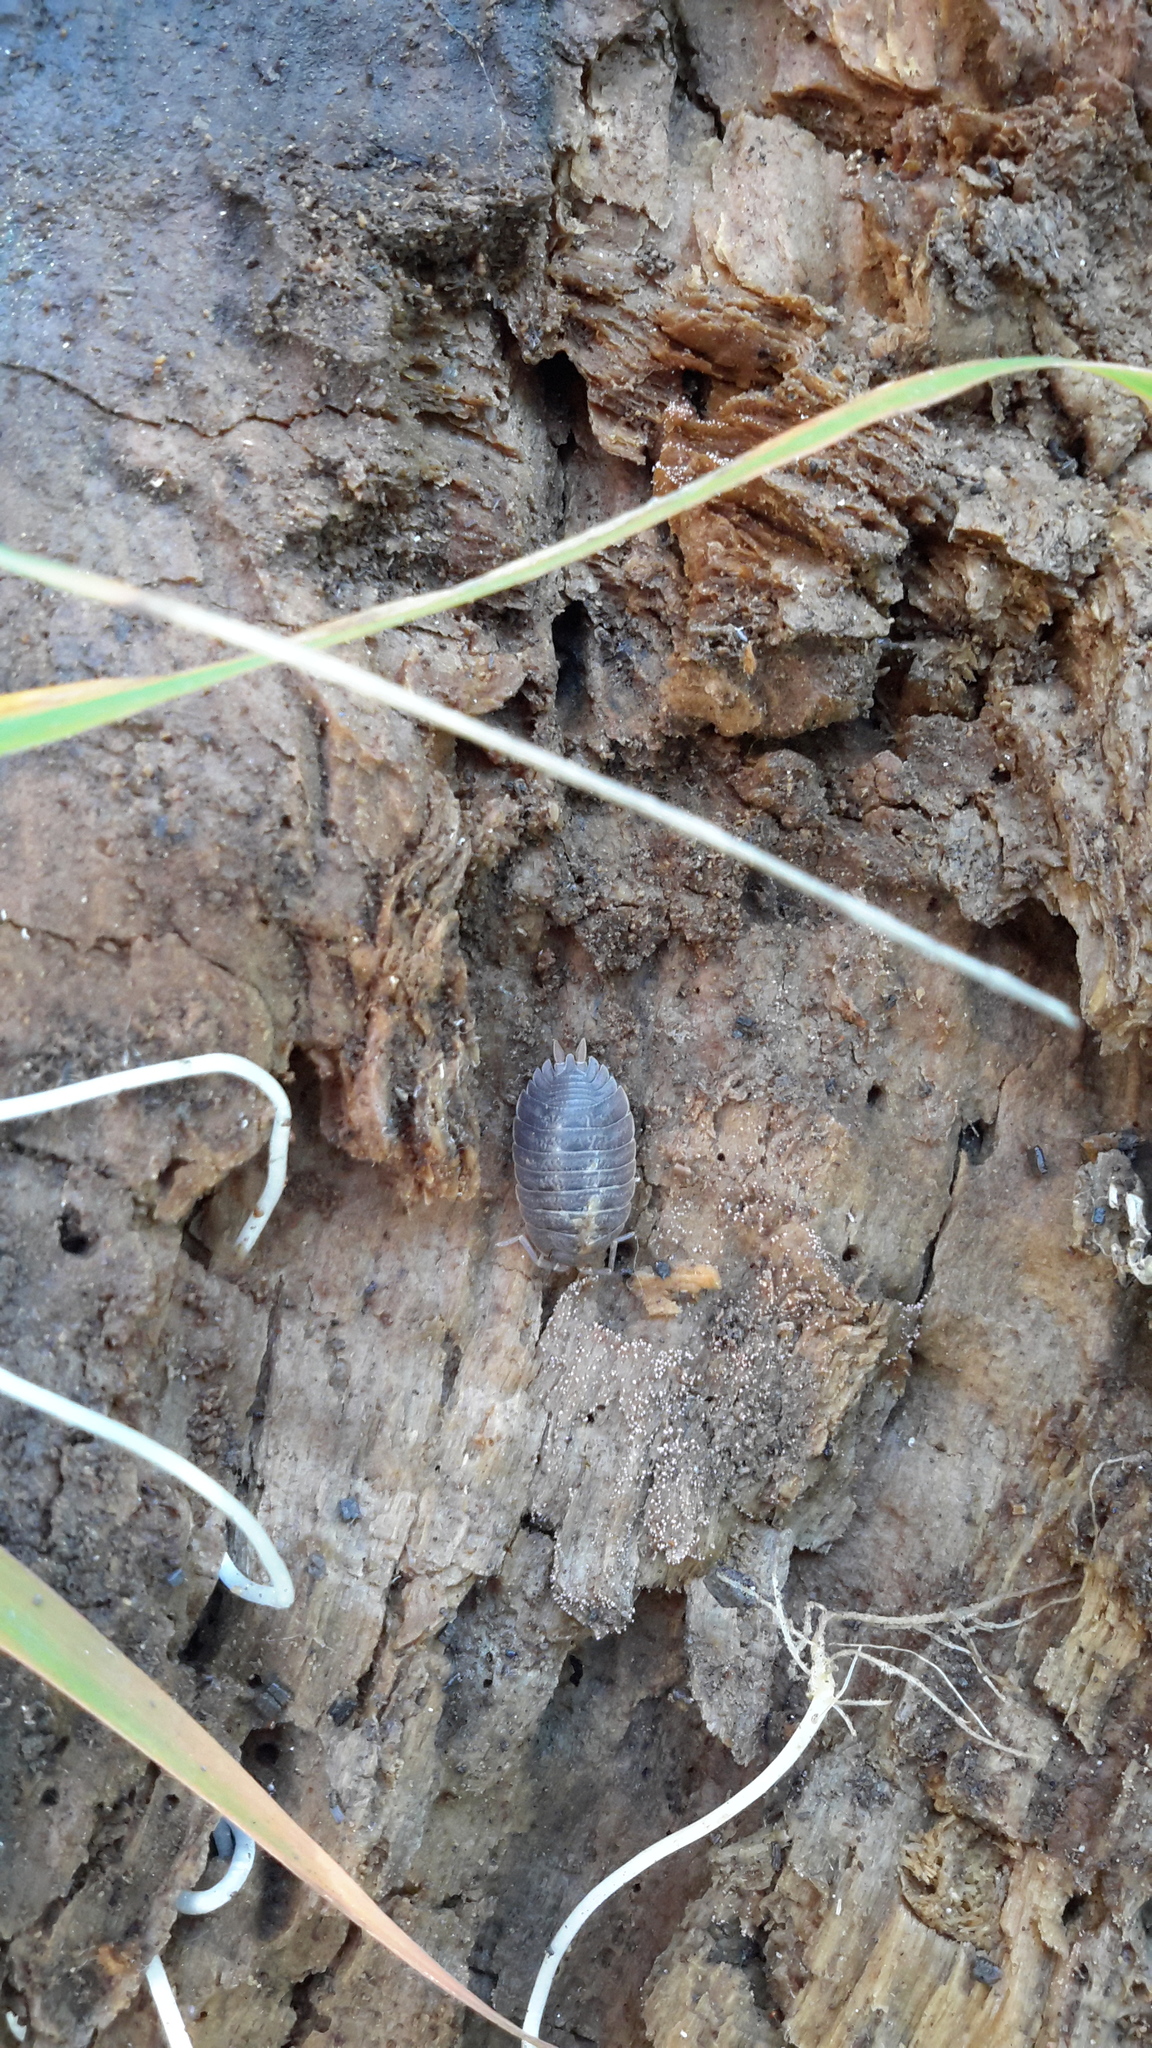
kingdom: Animalia
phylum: Arthropoda
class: Malacostraca
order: Isopoda
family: Porcellionidae
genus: Porcellio
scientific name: Porcellio dilatatus
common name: Isopod
